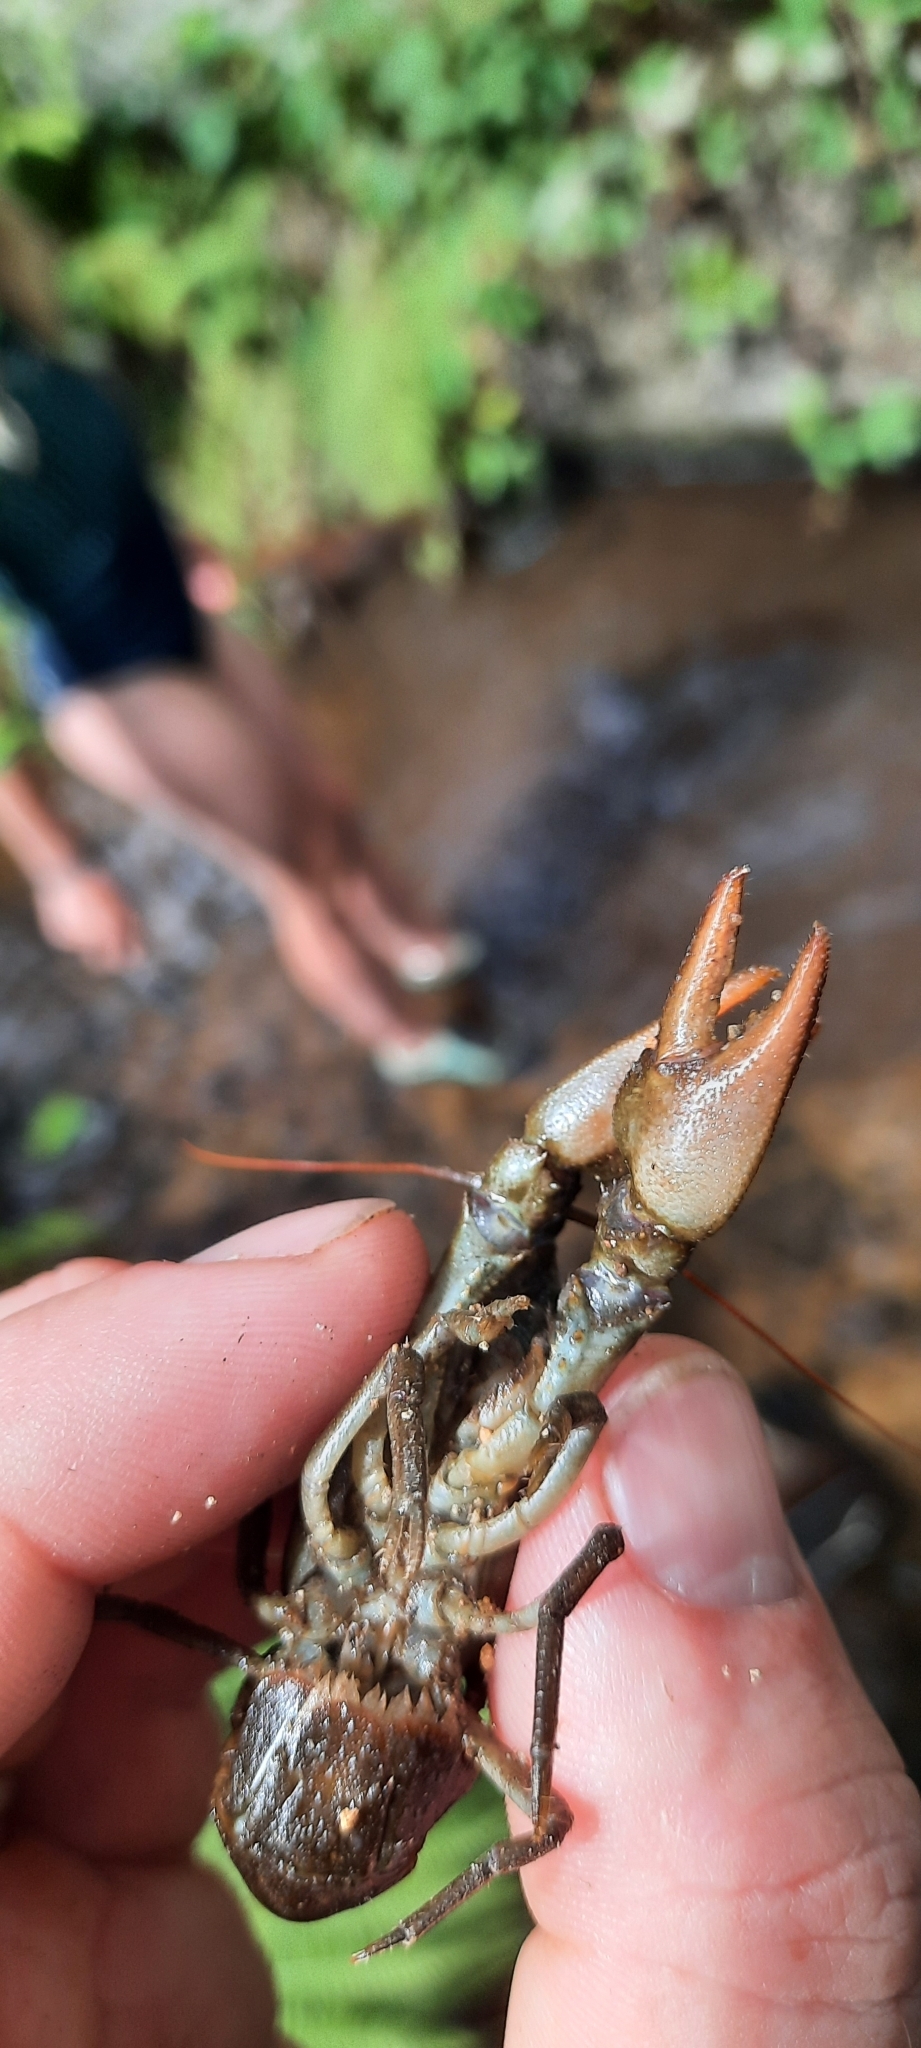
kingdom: Animalia
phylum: Arthropoda
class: Malacostraca
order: Decapoda
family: Astacidae
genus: Austropotamobius
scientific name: Austropotamobius pallipes
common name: White-clawed crayfish
